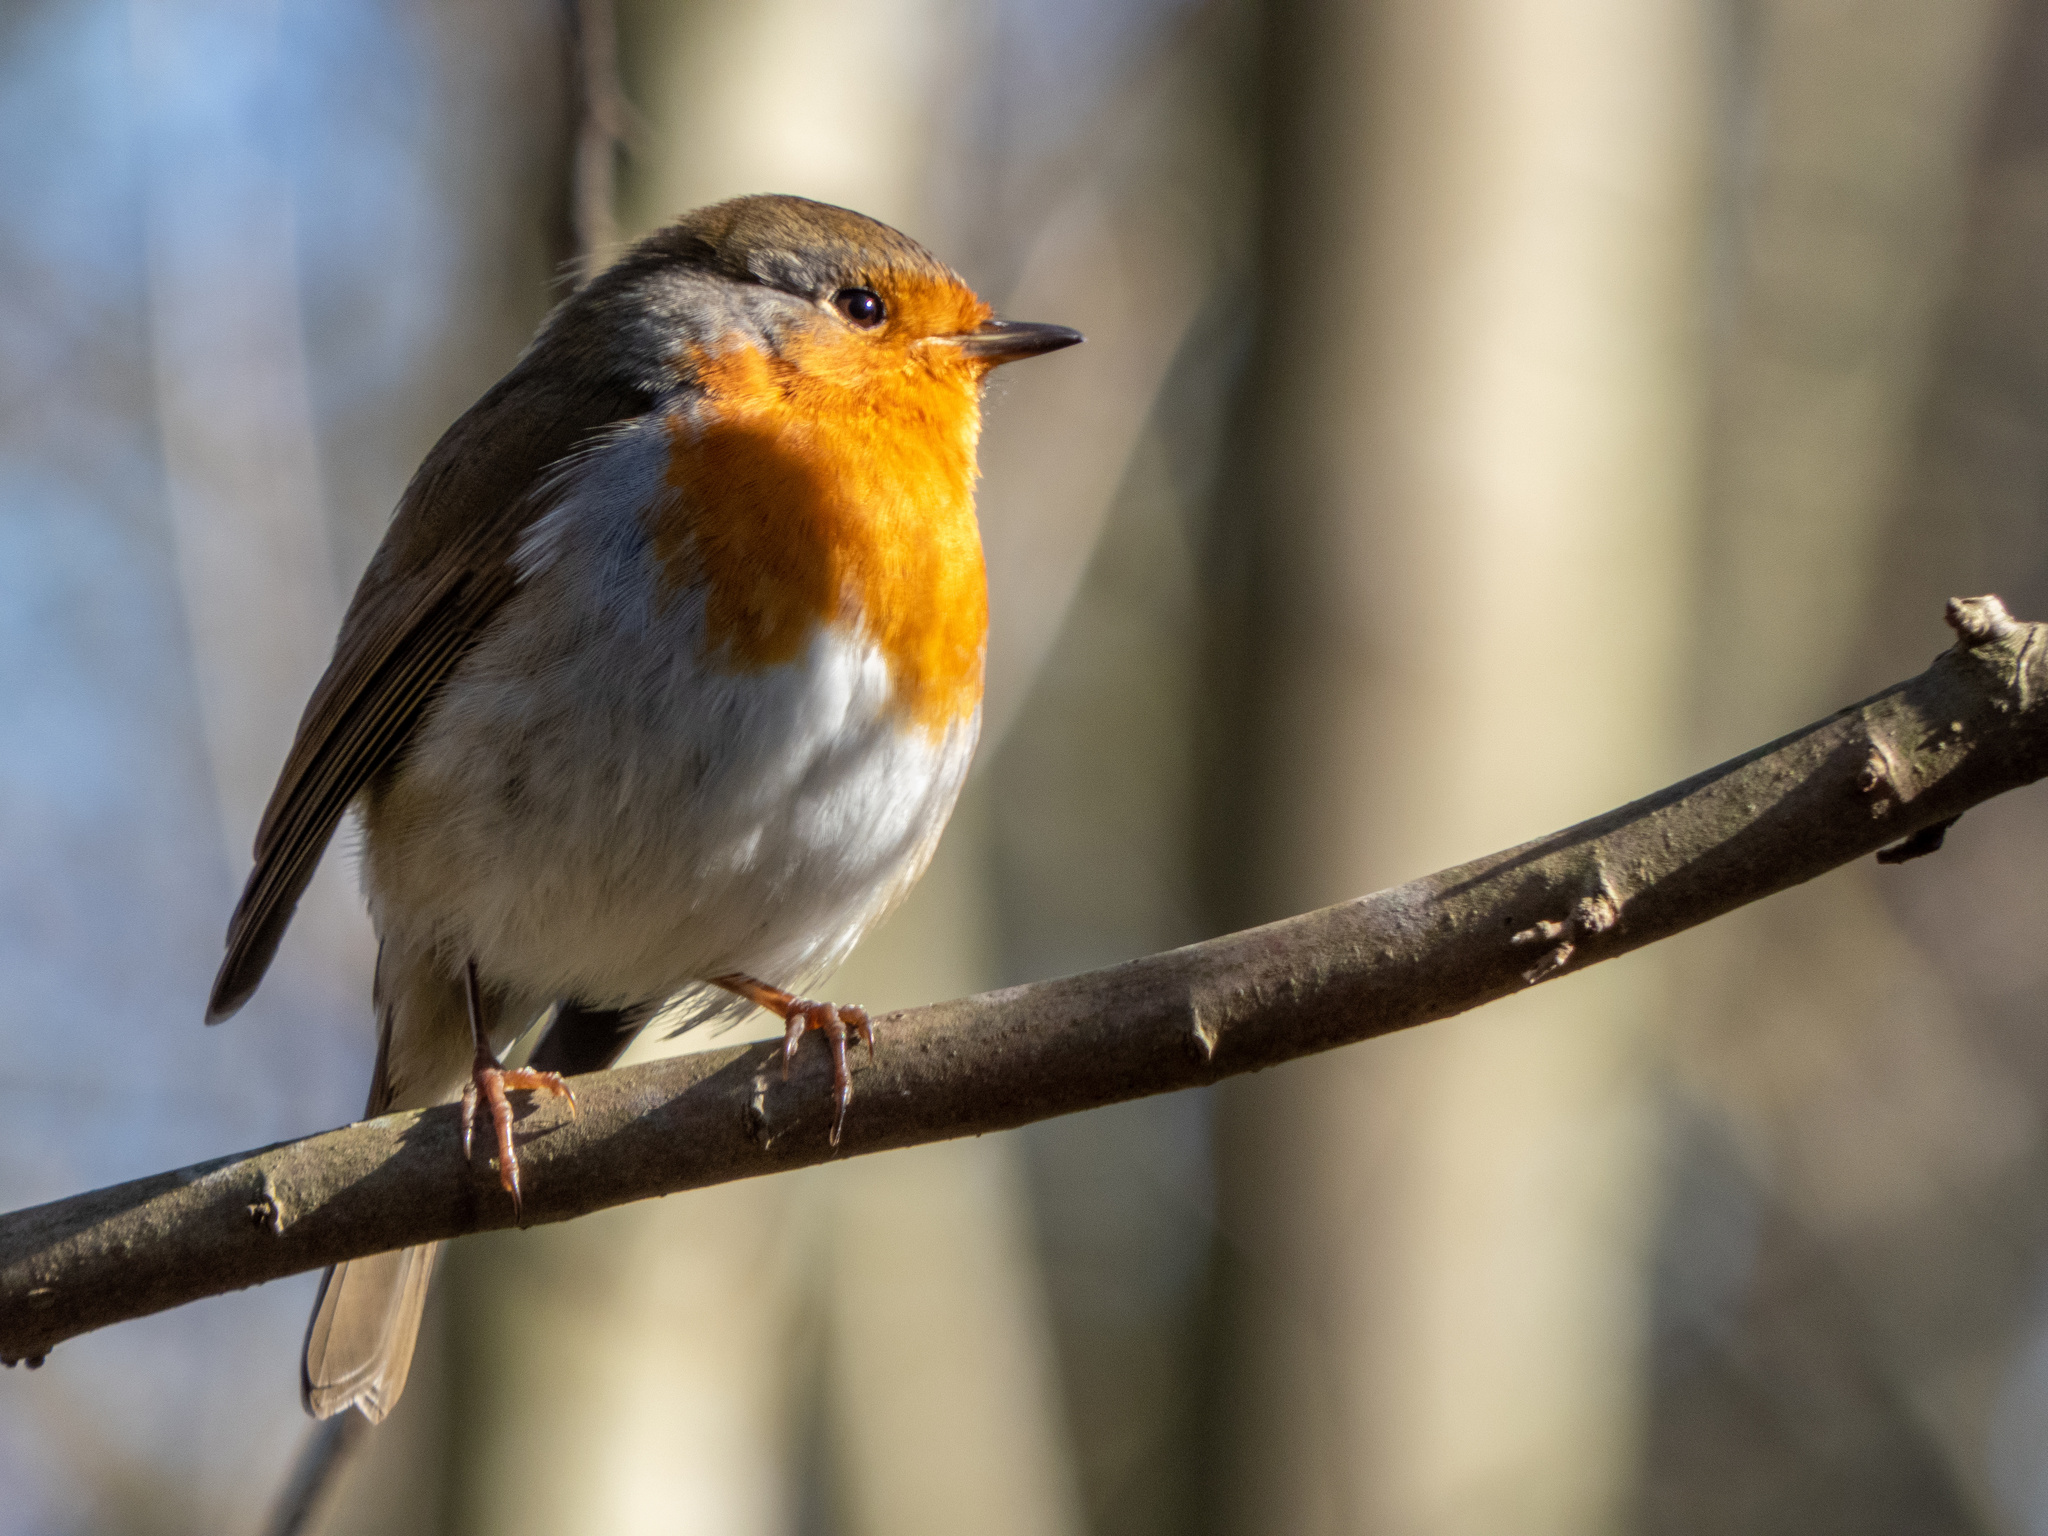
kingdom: Animalia
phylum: Chordata
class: Aves
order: Passeriformes
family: Muscicapidae
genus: Erithacus
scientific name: Erithacus rubecula
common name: European robin
